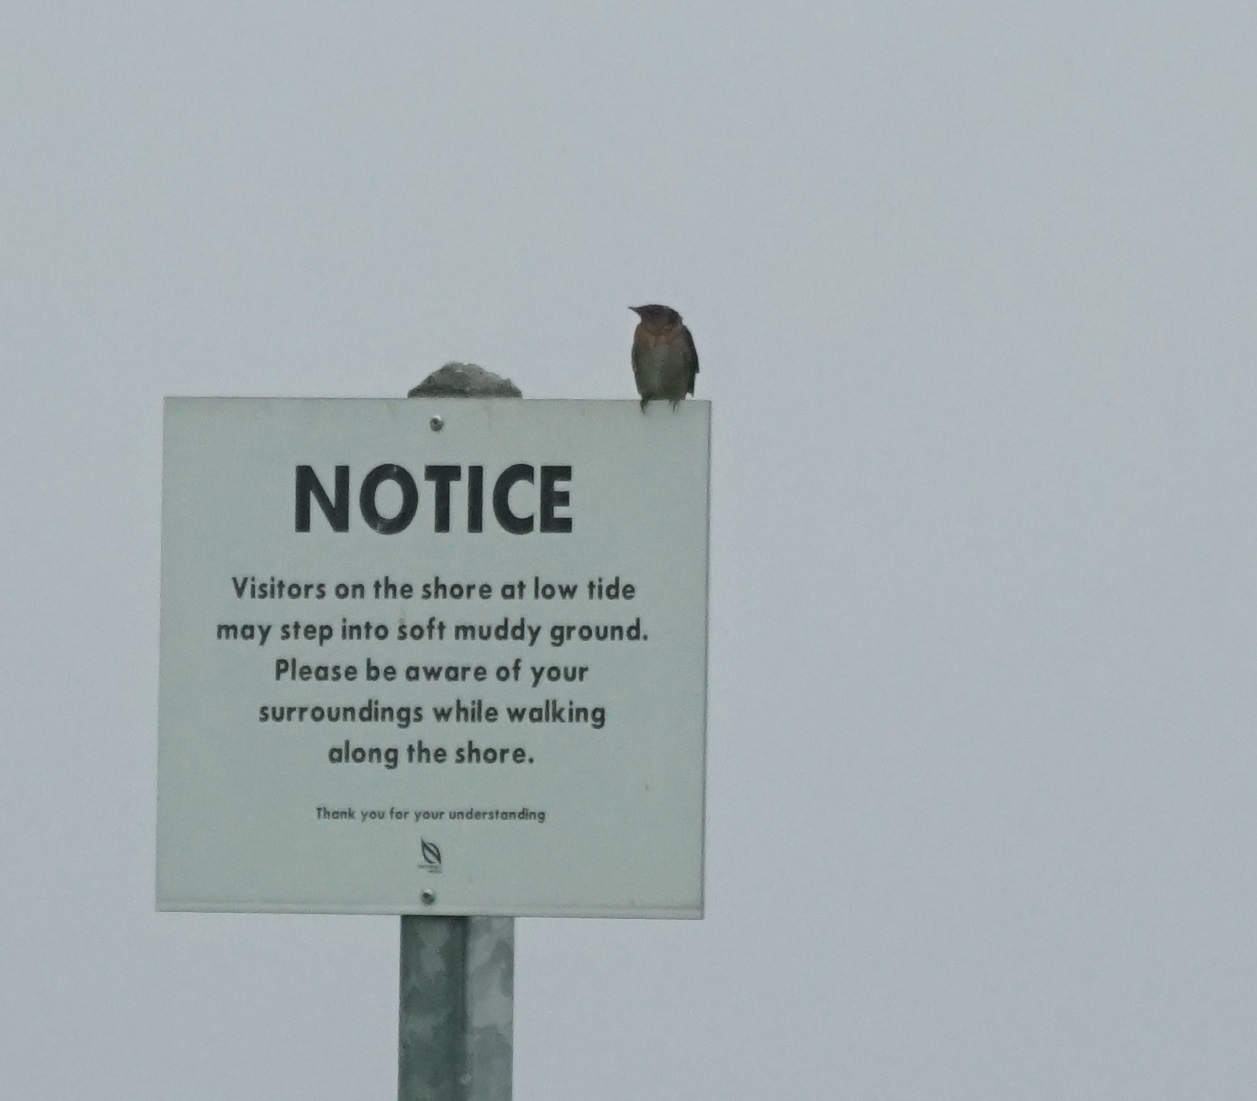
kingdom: Animalia
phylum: Chordata
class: Aves
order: Passeriformes
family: Hirundinidae
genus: Hirundo
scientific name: Hirundo tahitica
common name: Pacific swallow
